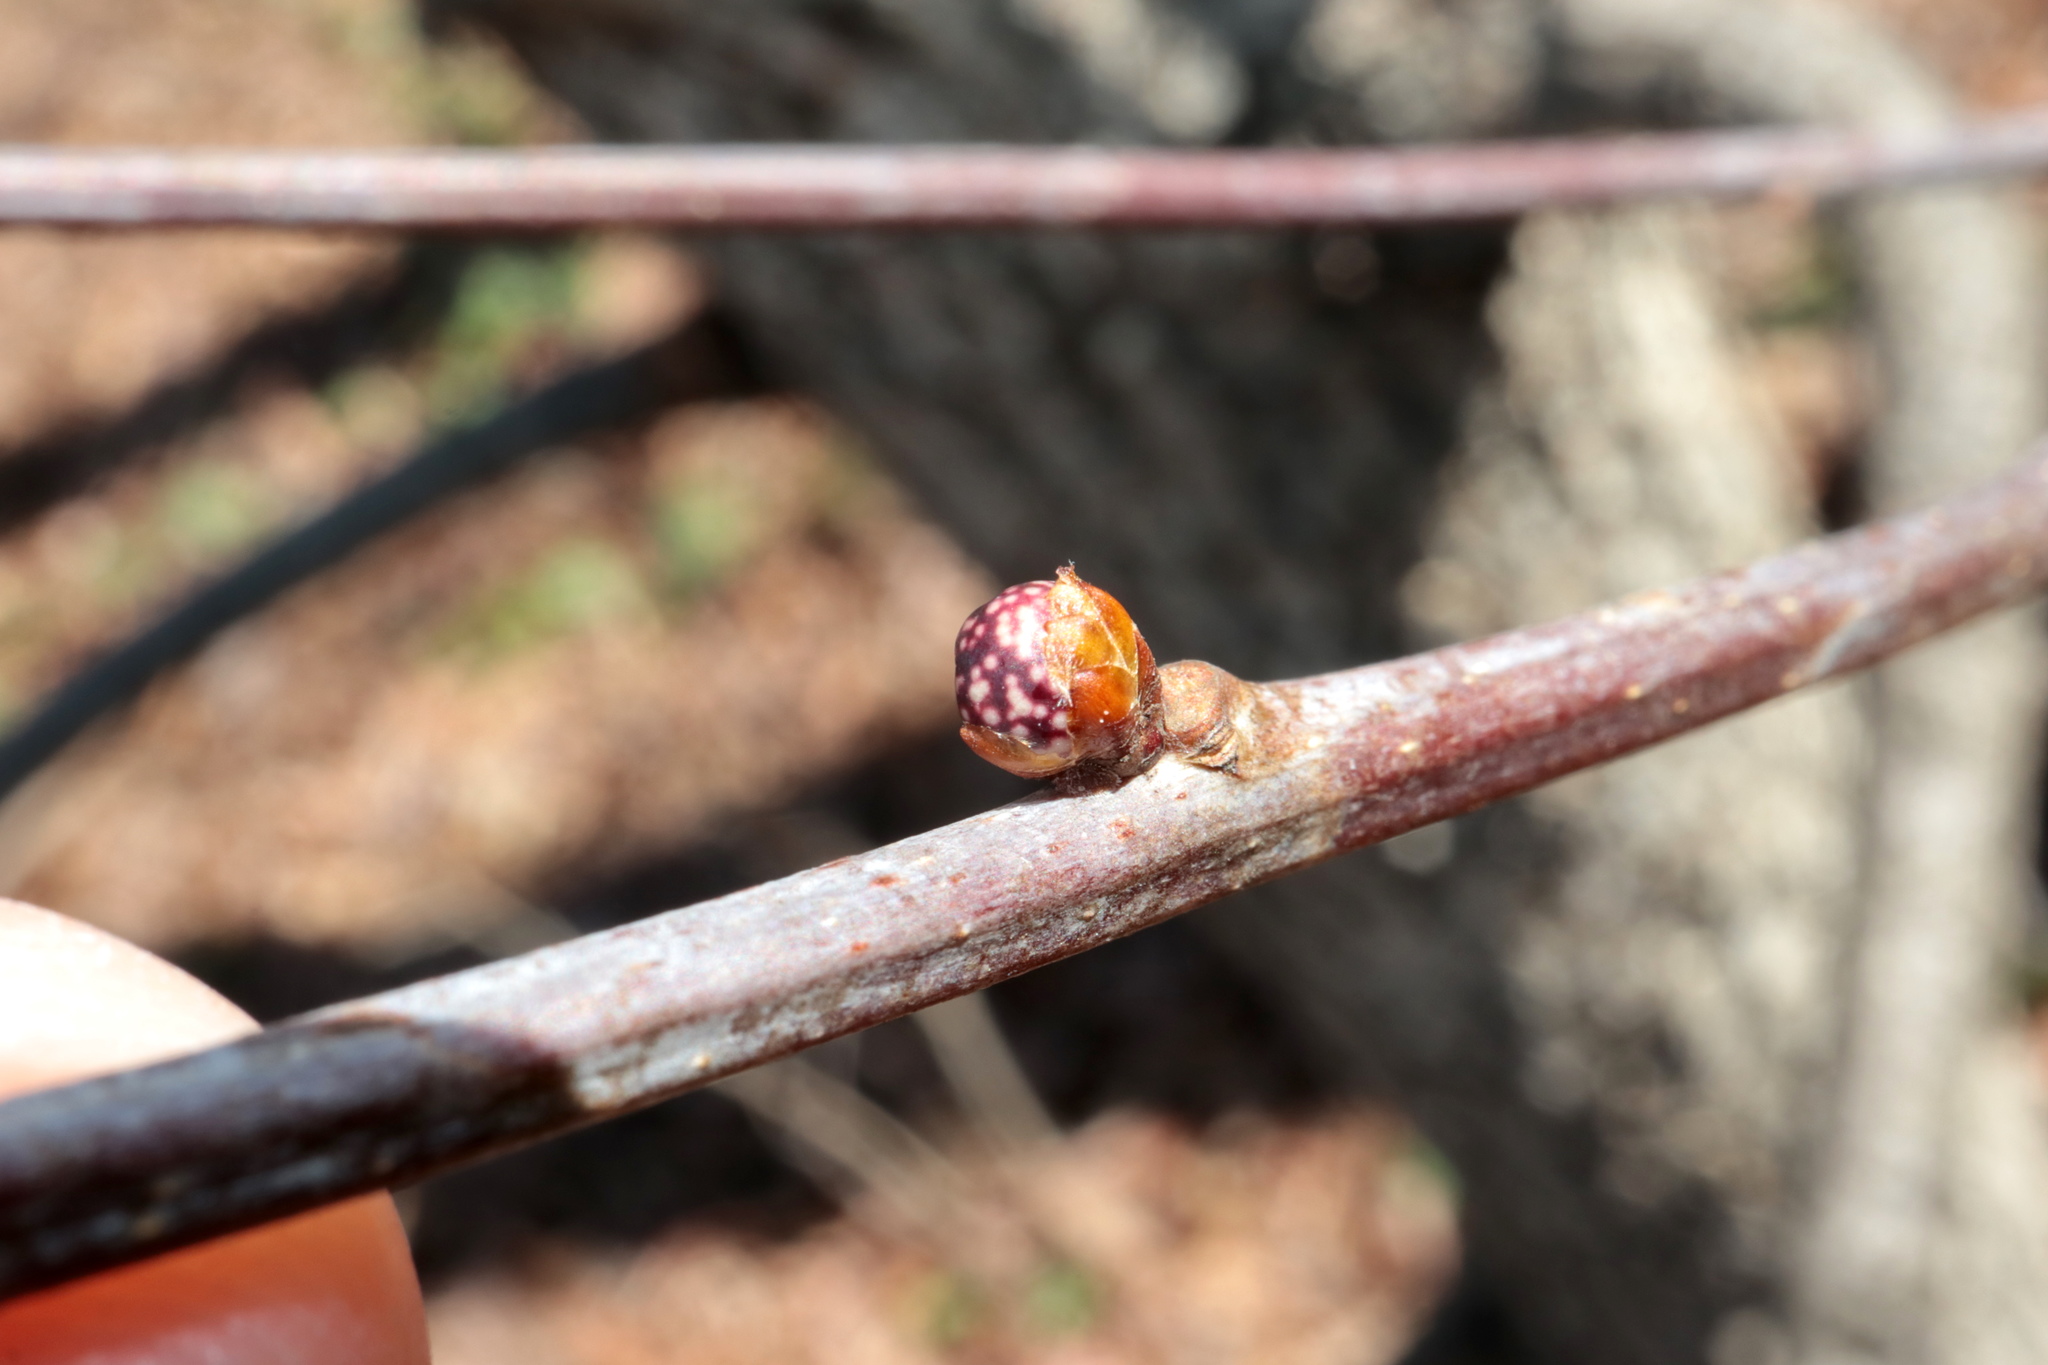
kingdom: Animalia
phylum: Arthropoda
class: Insecta
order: Hymenoptera
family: Cynipidae
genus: Andricus
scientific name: Andricus
